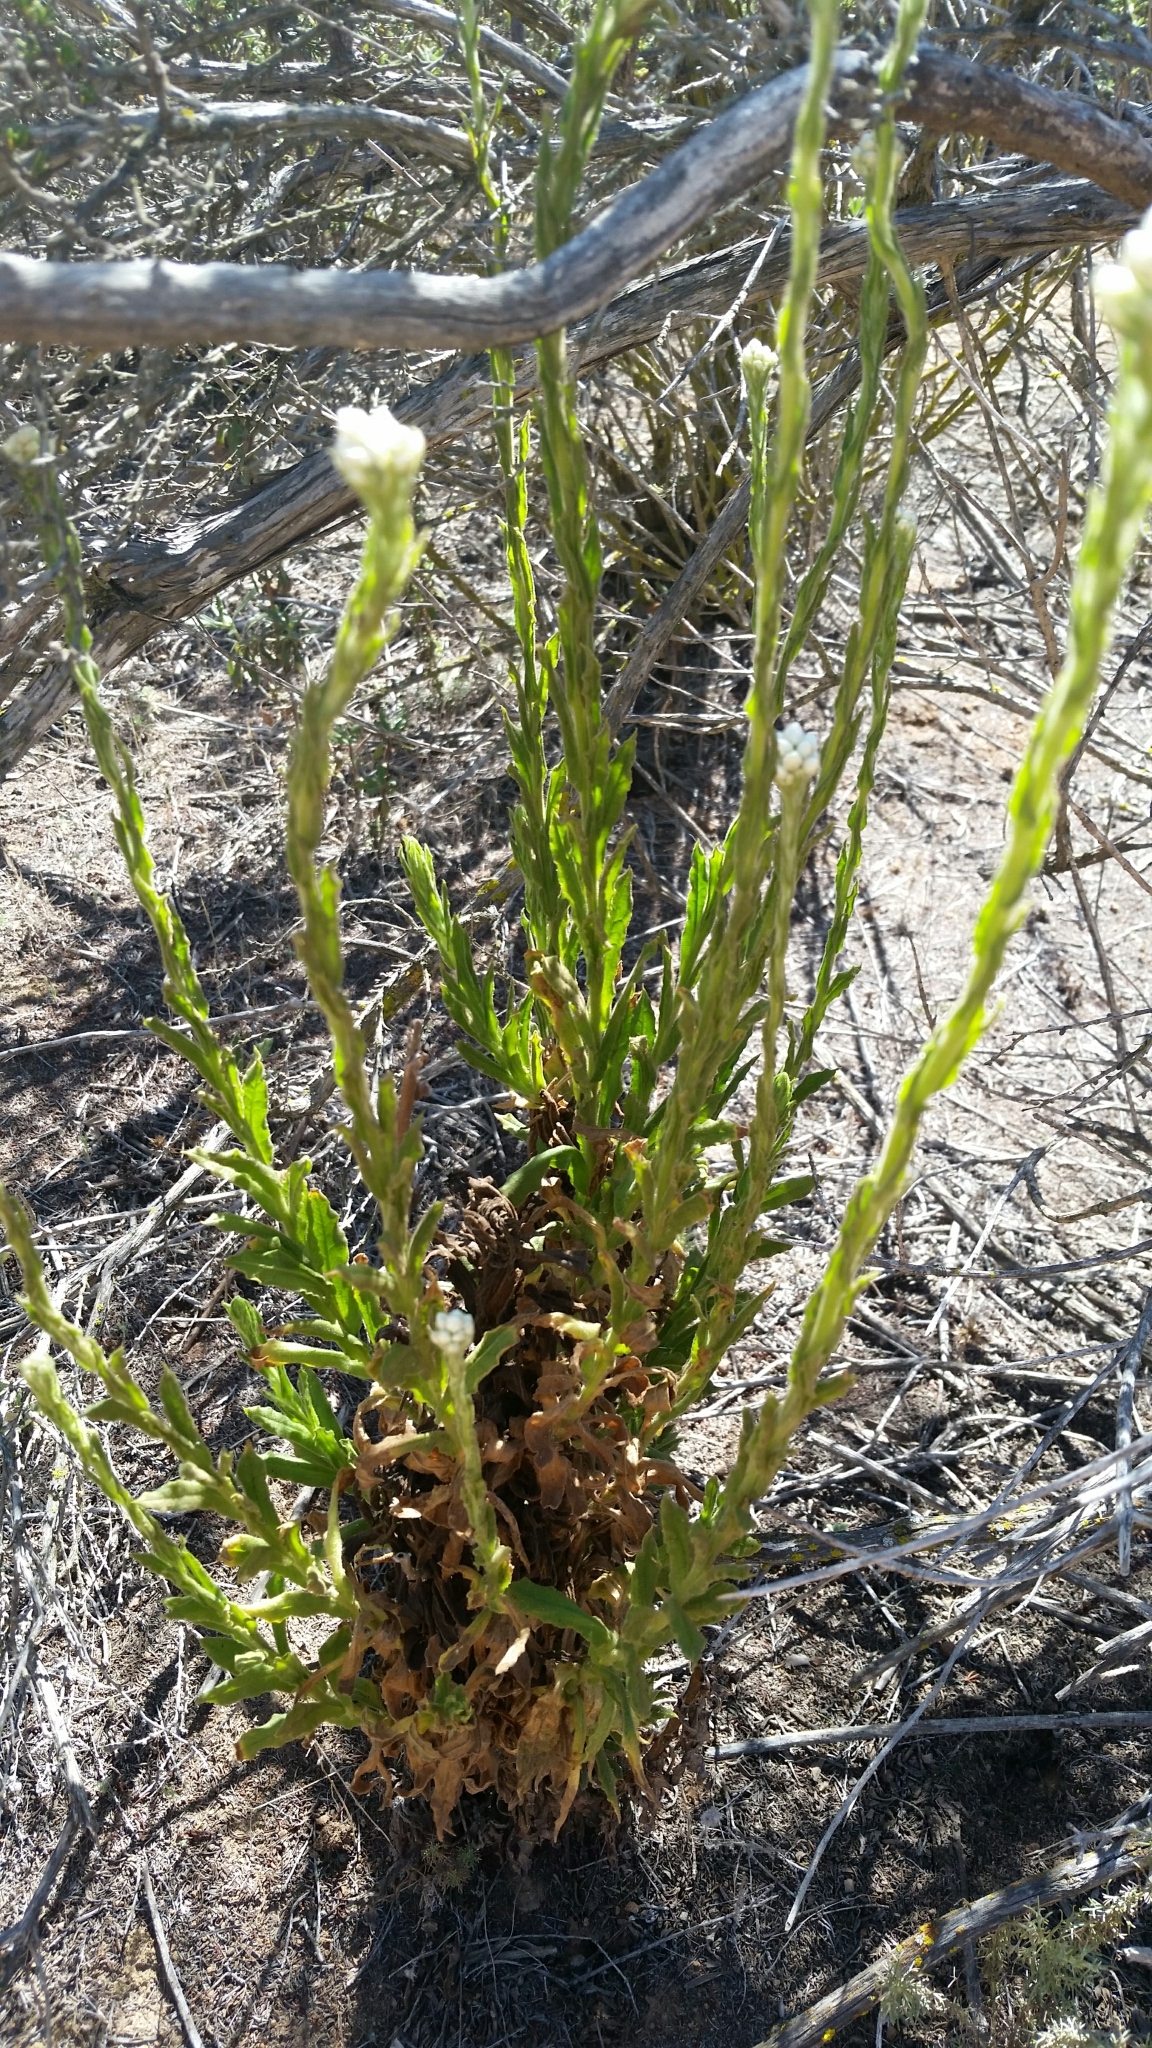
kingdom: Plantae
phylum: Tracheophyta
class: Magnoliopsida
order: Asterales
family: Asteraceae
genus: Pseudognaphalium
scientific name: Pseudognaphalium californicum
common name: California rabbit-tobacco
